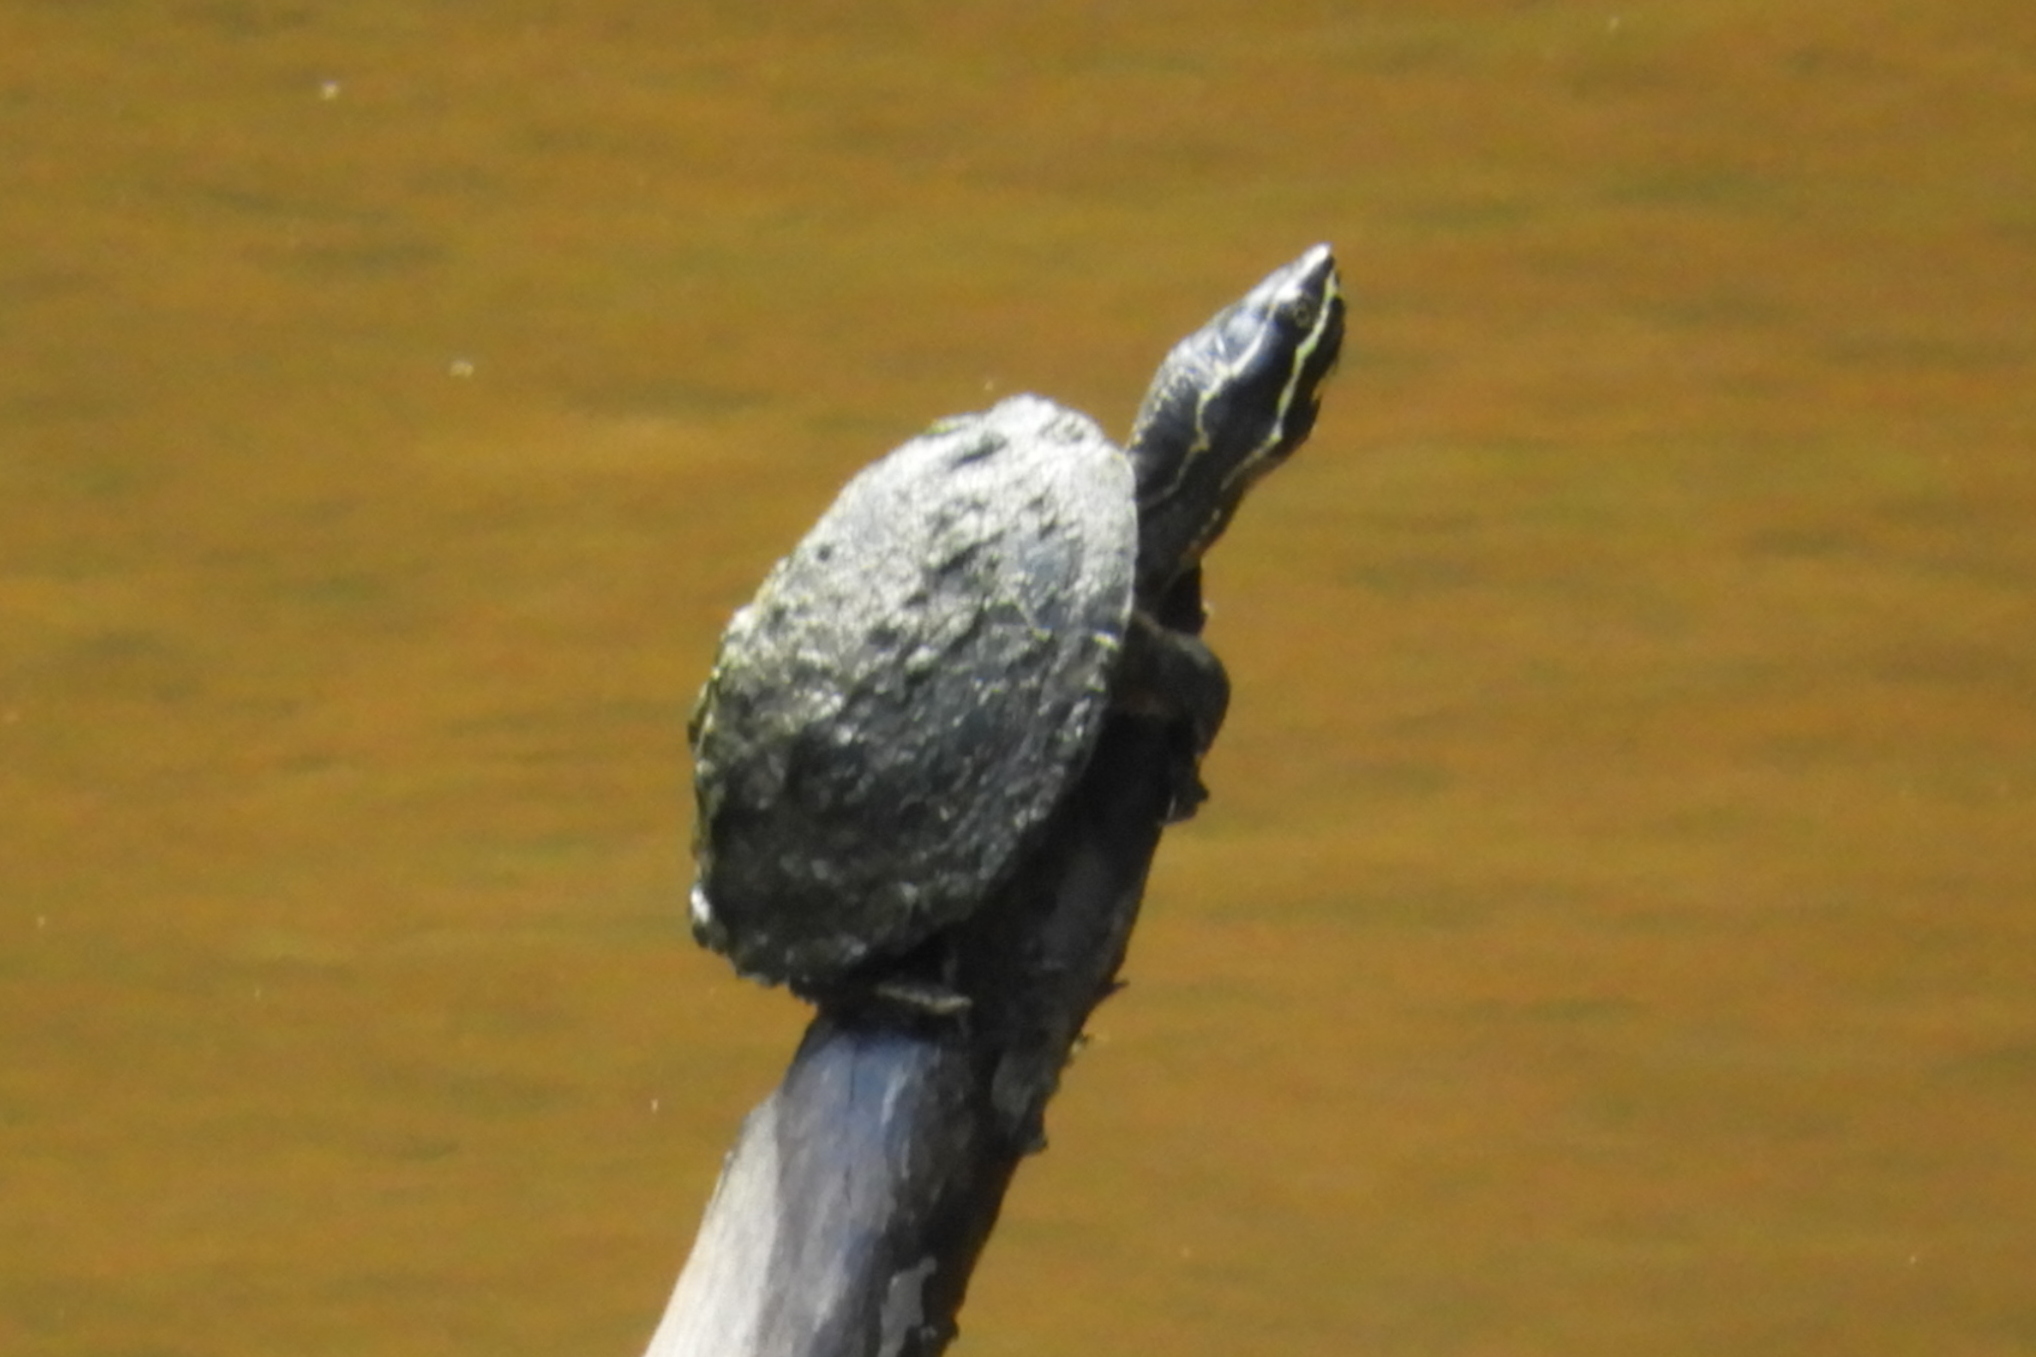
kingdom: Animalia
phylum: Chordata
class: Testudines
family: Kinosternidae
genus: Sternotherus
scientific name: Sternotherus odoratus
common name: Common musk turtle
